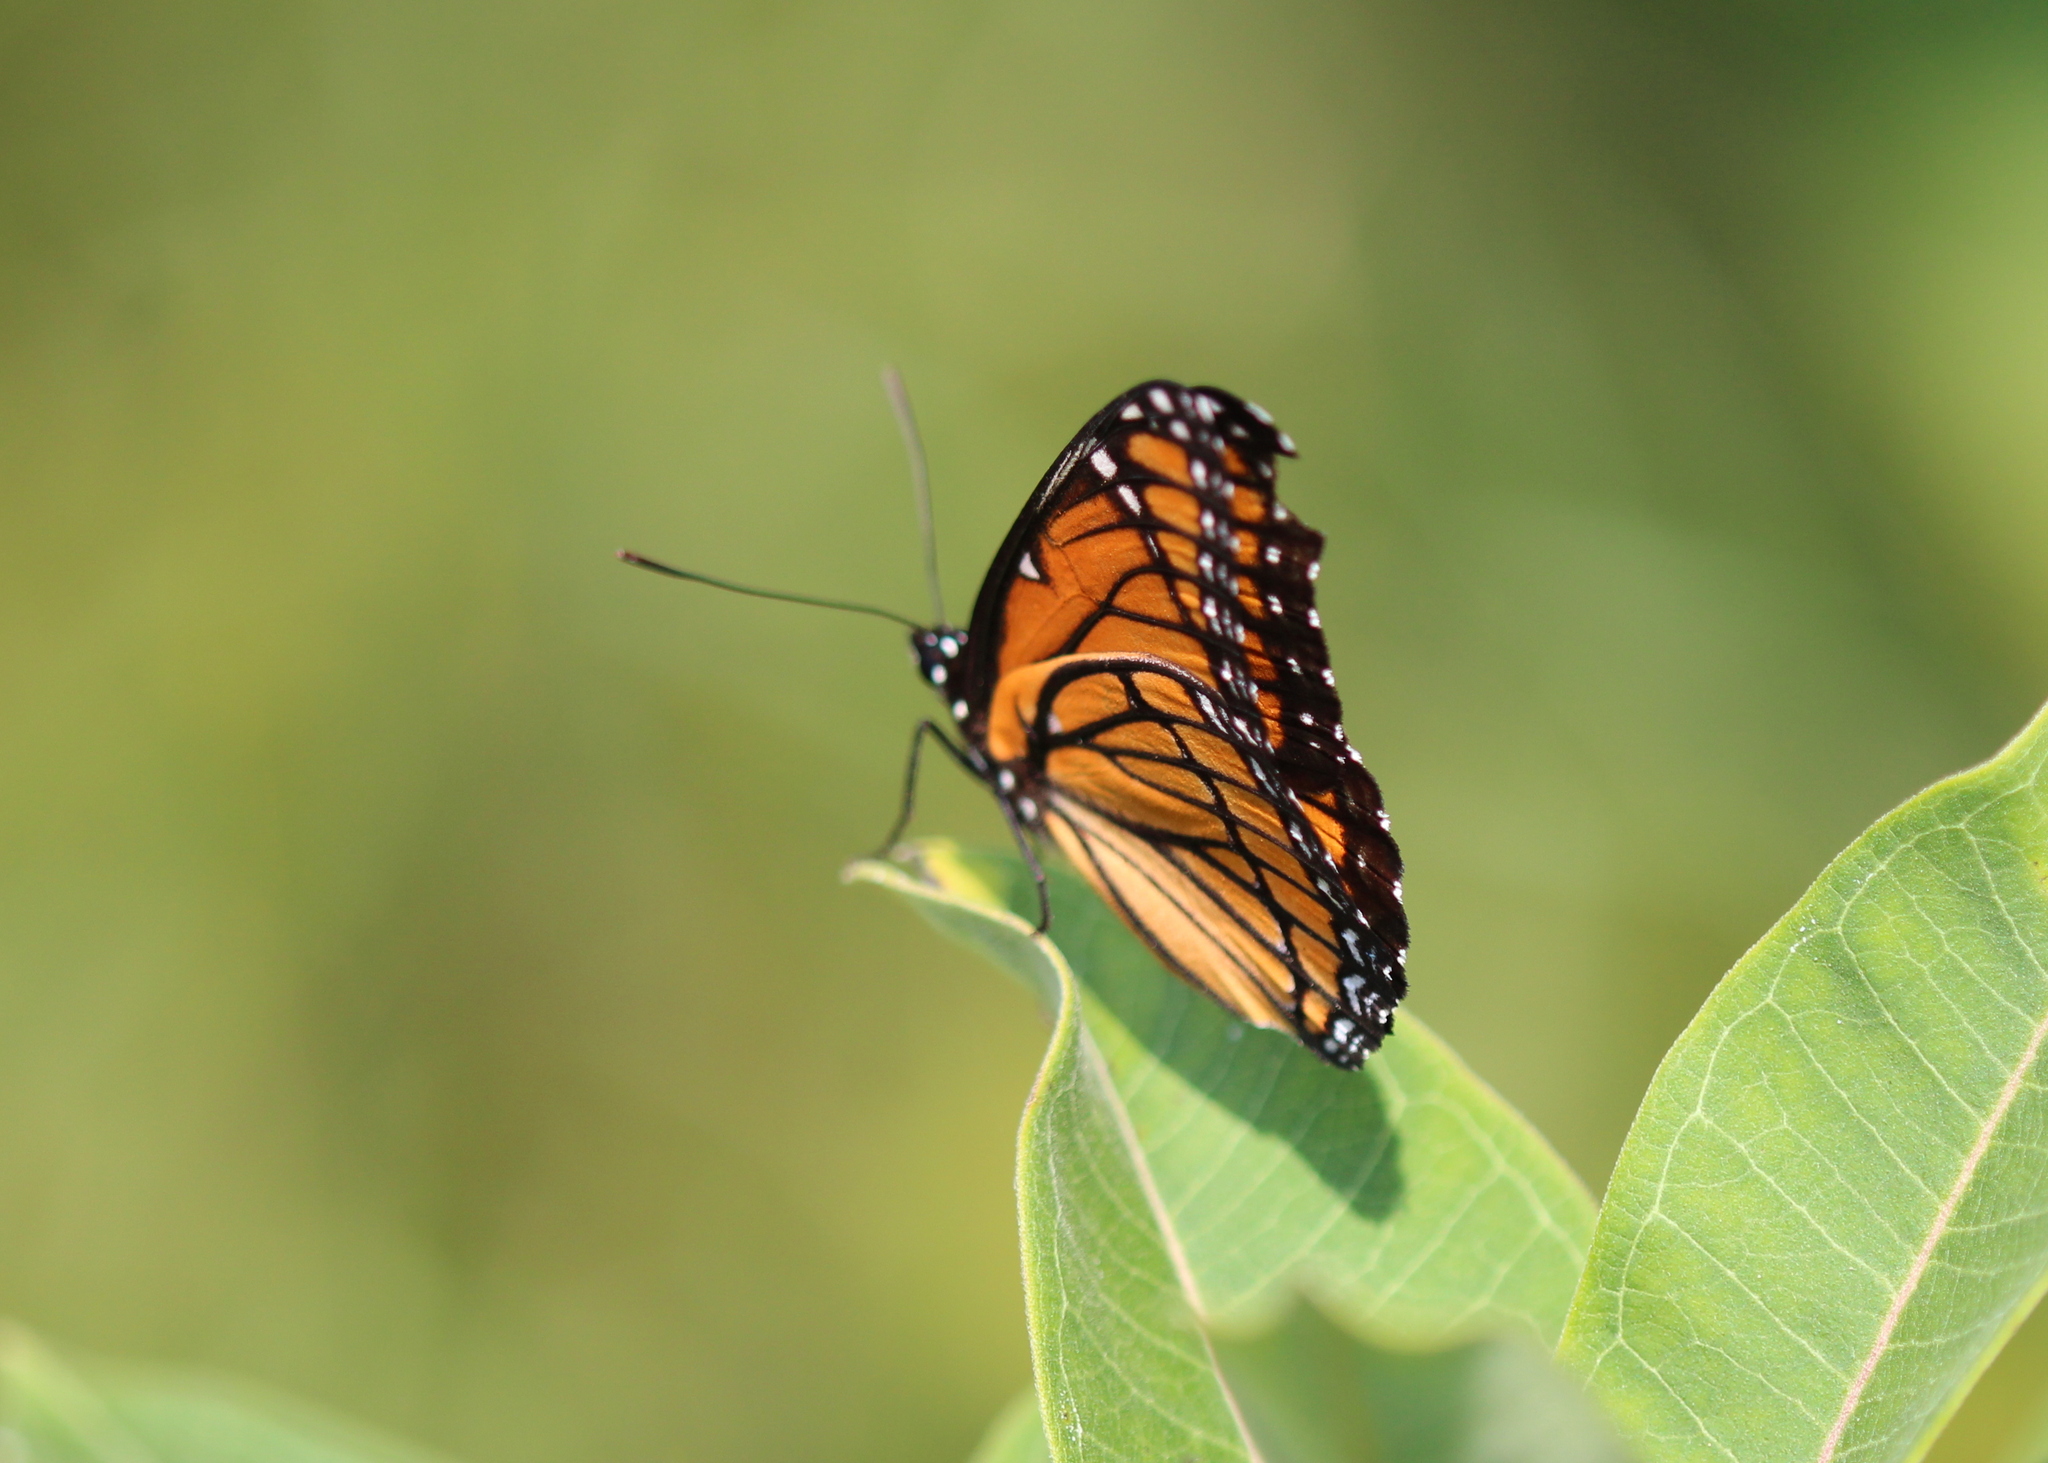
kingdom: Animalia
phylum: Arthropoda
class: Insecta
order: Lepidoptera
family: Nymphalidae
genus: Limenitis
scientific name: Limenitis archippus
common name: Viceroy
